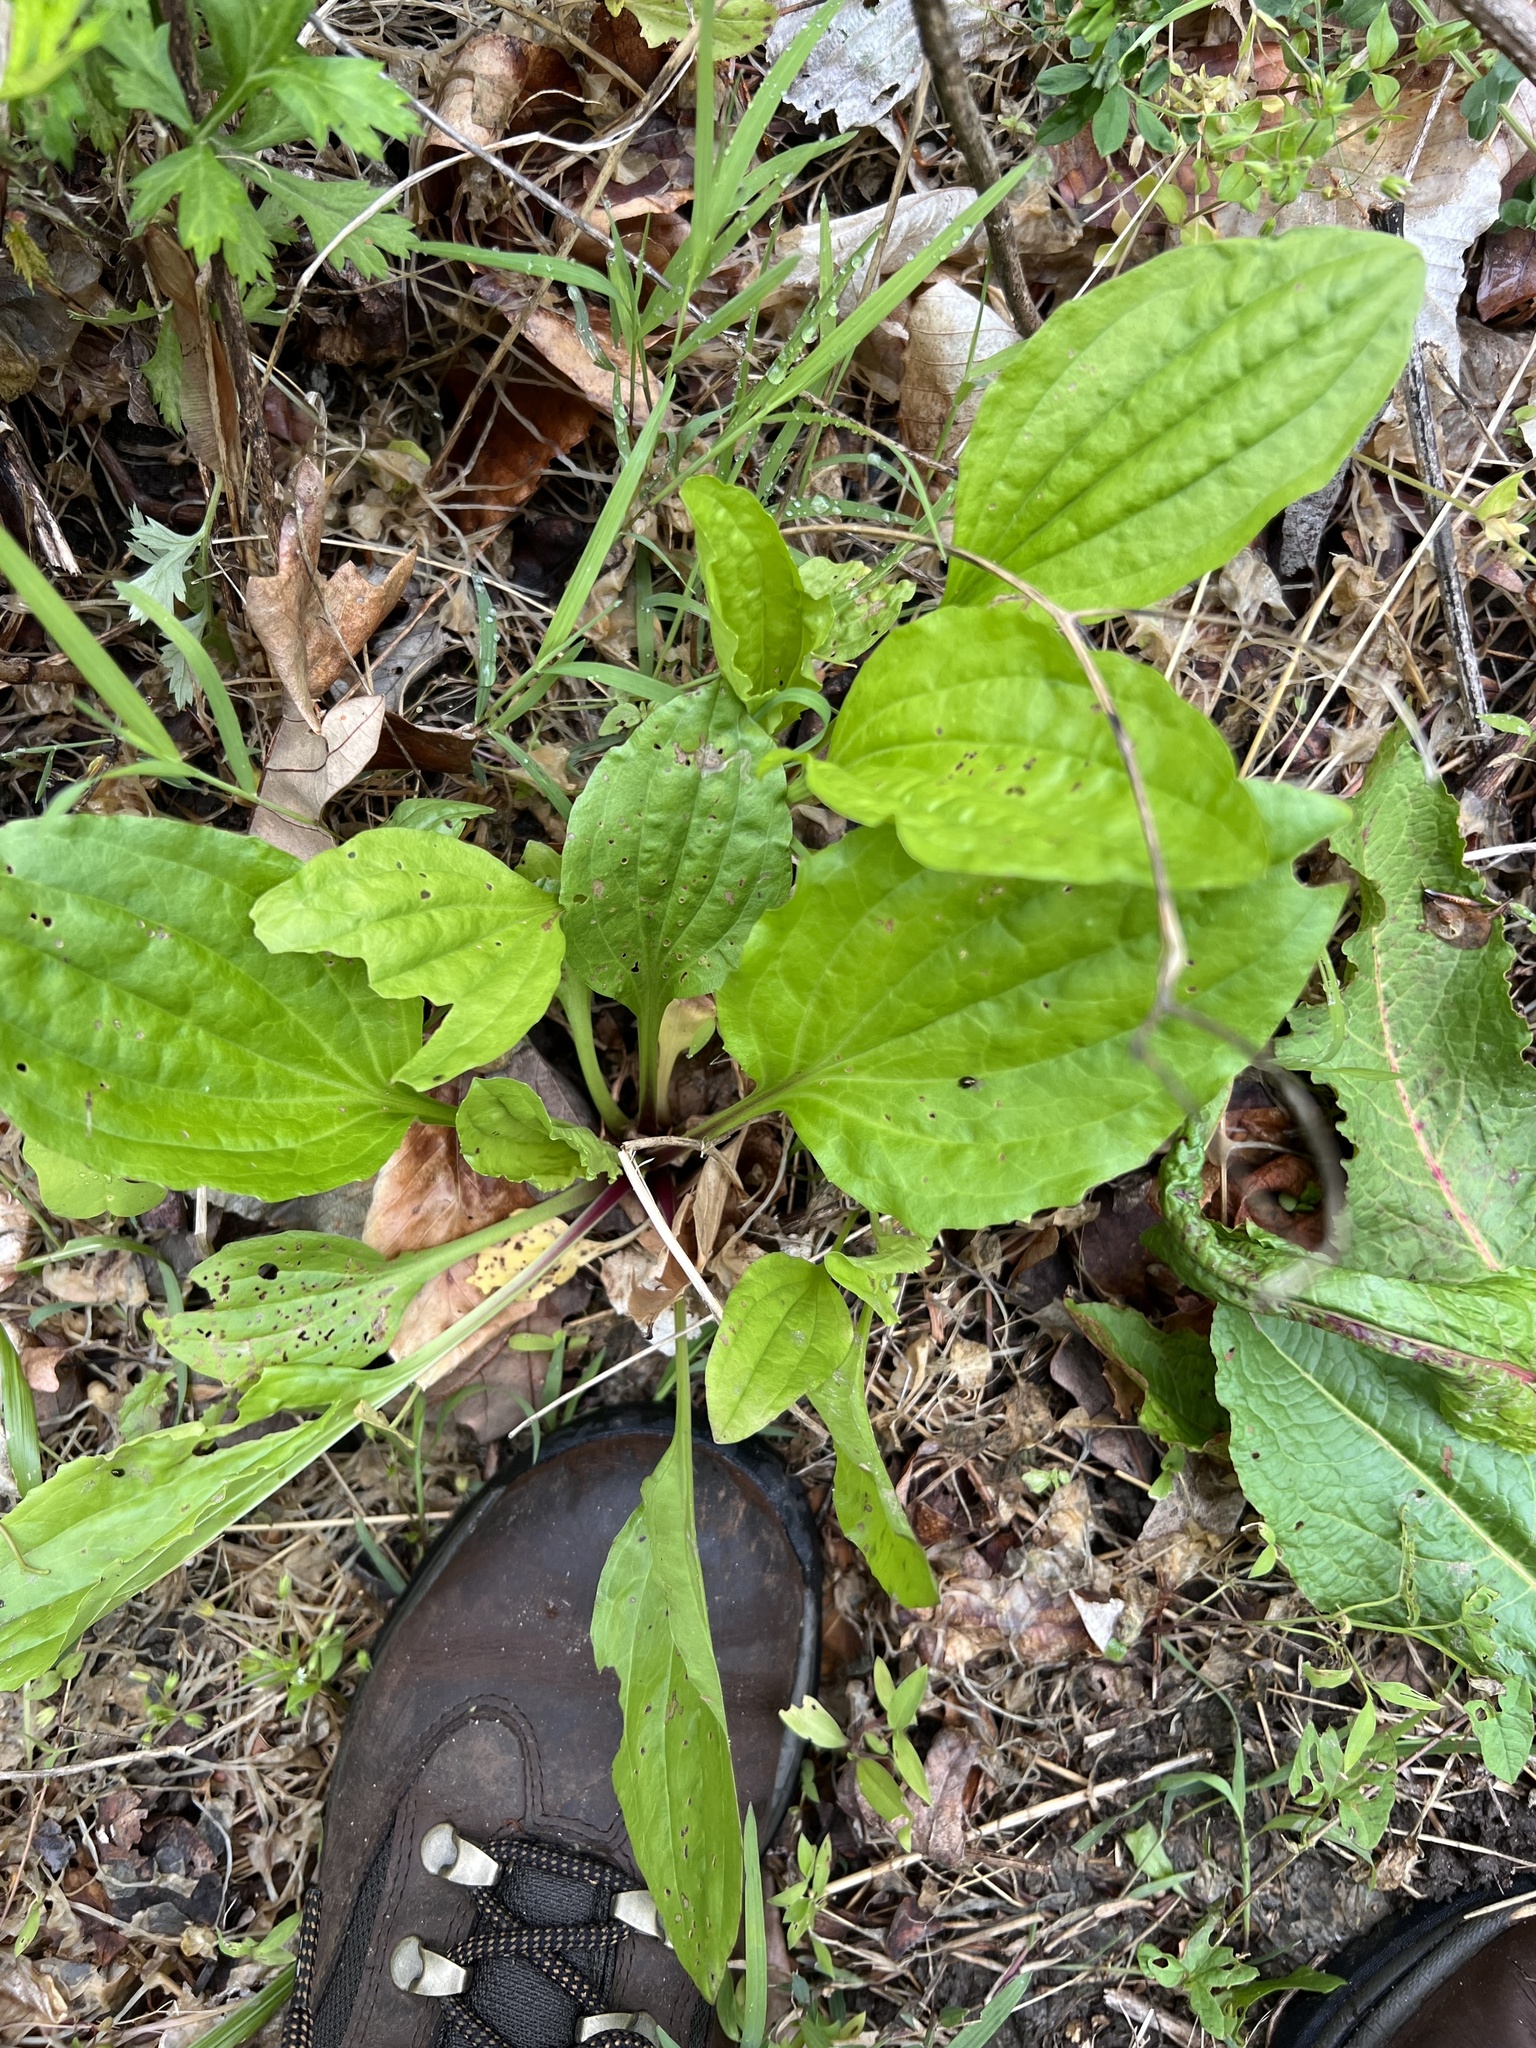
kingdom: Plantae
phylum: Tracheophyta
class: Magnoliopsida
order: Lamiales
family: Plantaginaceae
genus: Plantago
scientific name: Plantago major
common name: Common plantain
